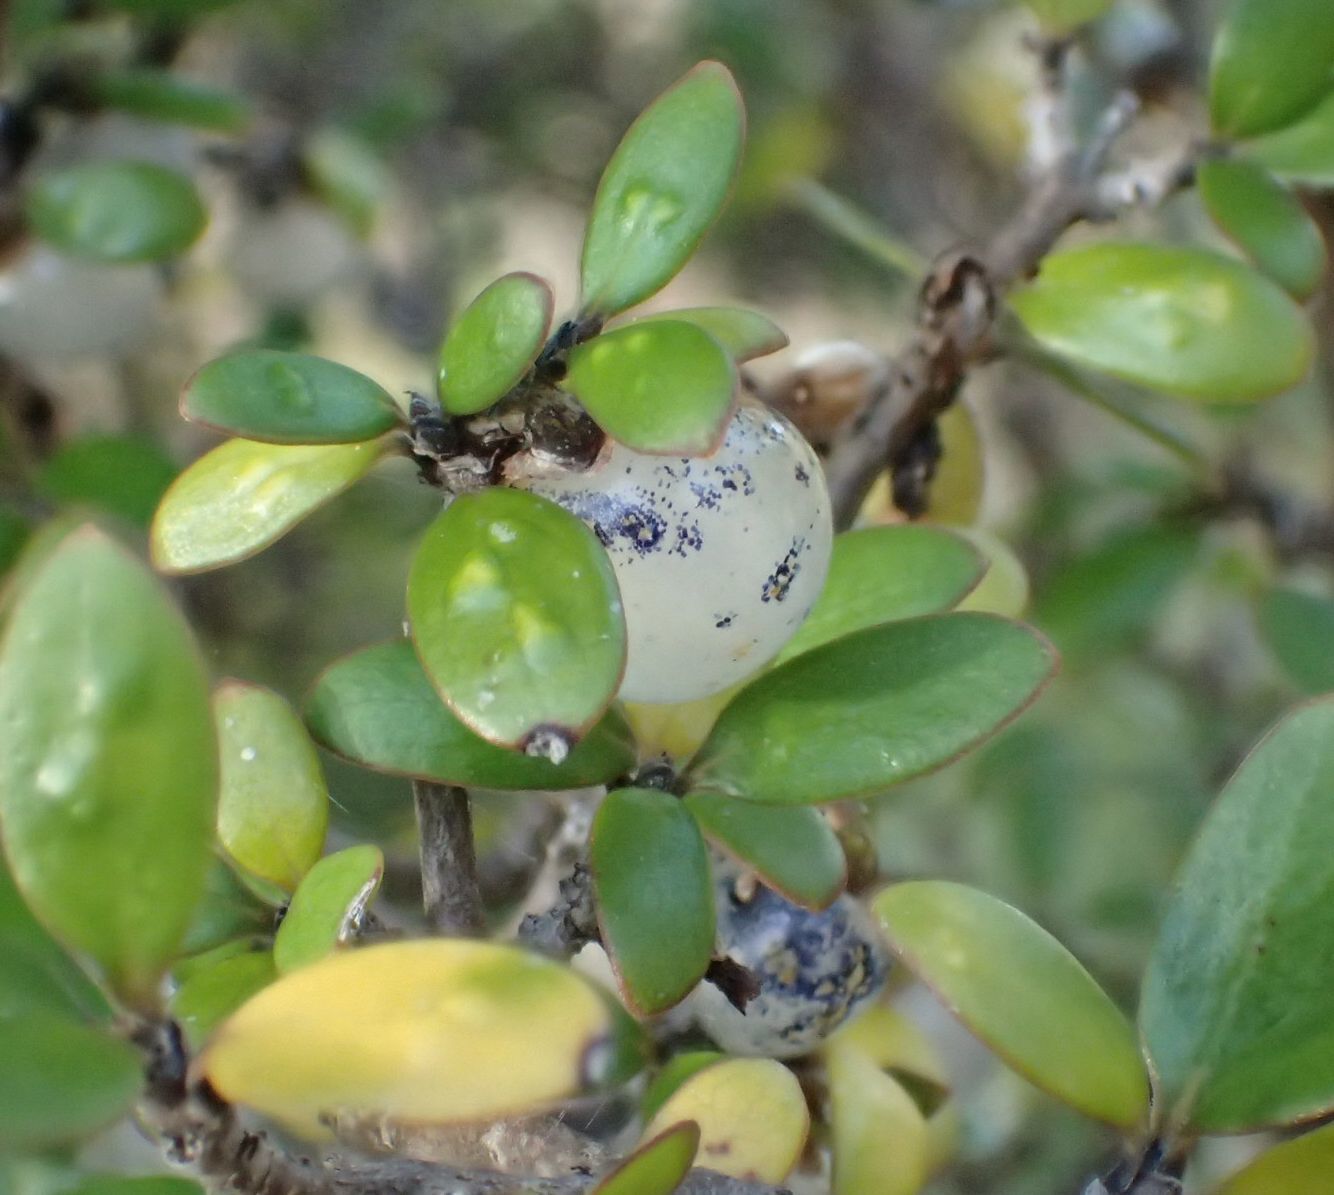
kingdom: Plantae
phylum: Tracheophyta
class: Magnoliopsida
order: Gentianales
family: Rubiaceae
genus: Coprosma
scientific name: Coprosma propinqua
